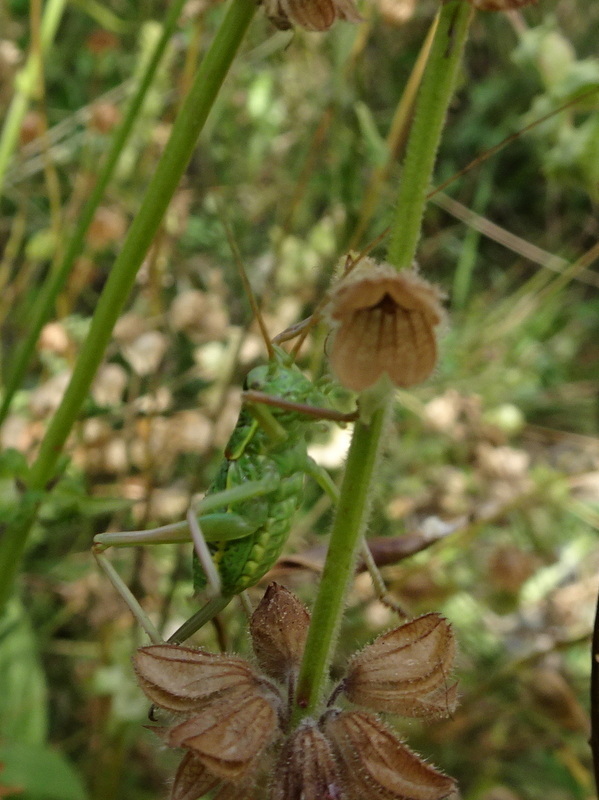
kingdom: Animalia
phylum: Arthropoda
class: Insecta
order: Orthoptera
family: Tettigoniidae
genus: Ephippiger
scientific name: Ephippiger diurnus
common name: Western saddle bush-cricket
